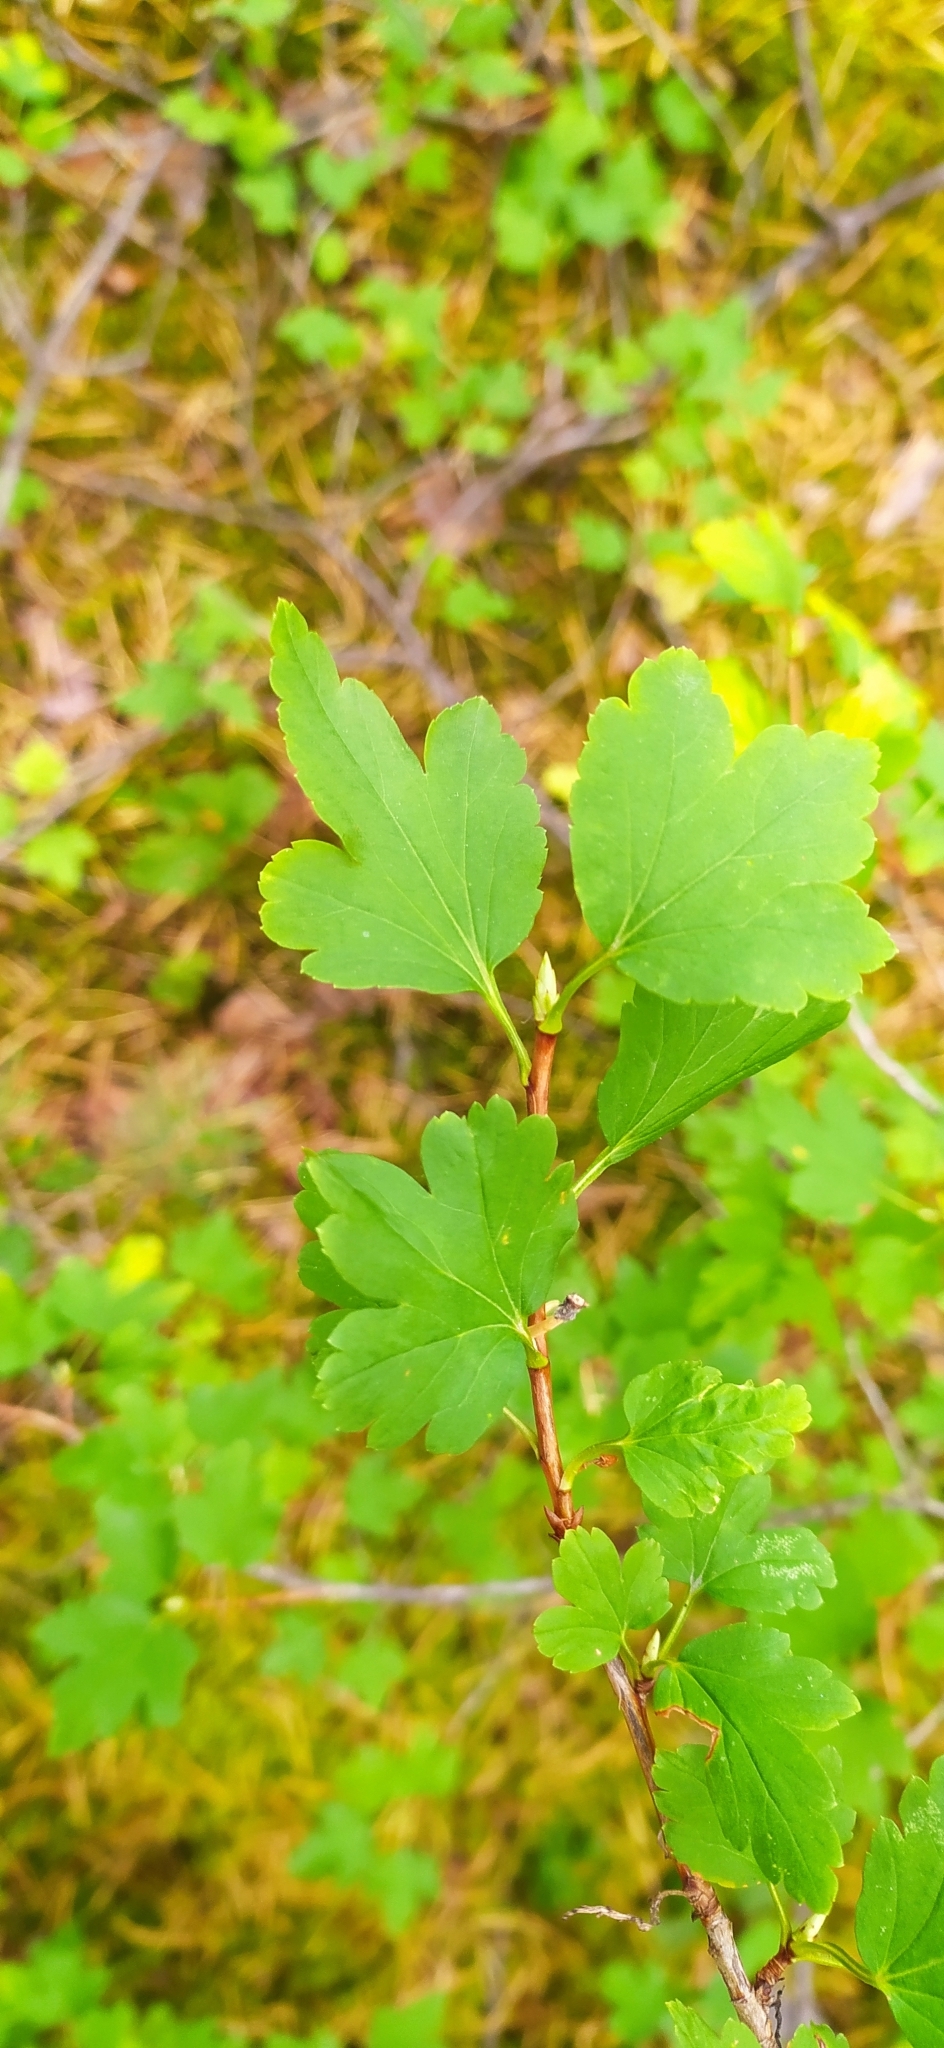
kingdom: Plantae
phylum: Tracheophyta
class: Magnoliopsida
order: Saxifragales
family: Grossulariaceae
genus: Ribes
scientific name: Ribes aureum
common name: Golden currant
